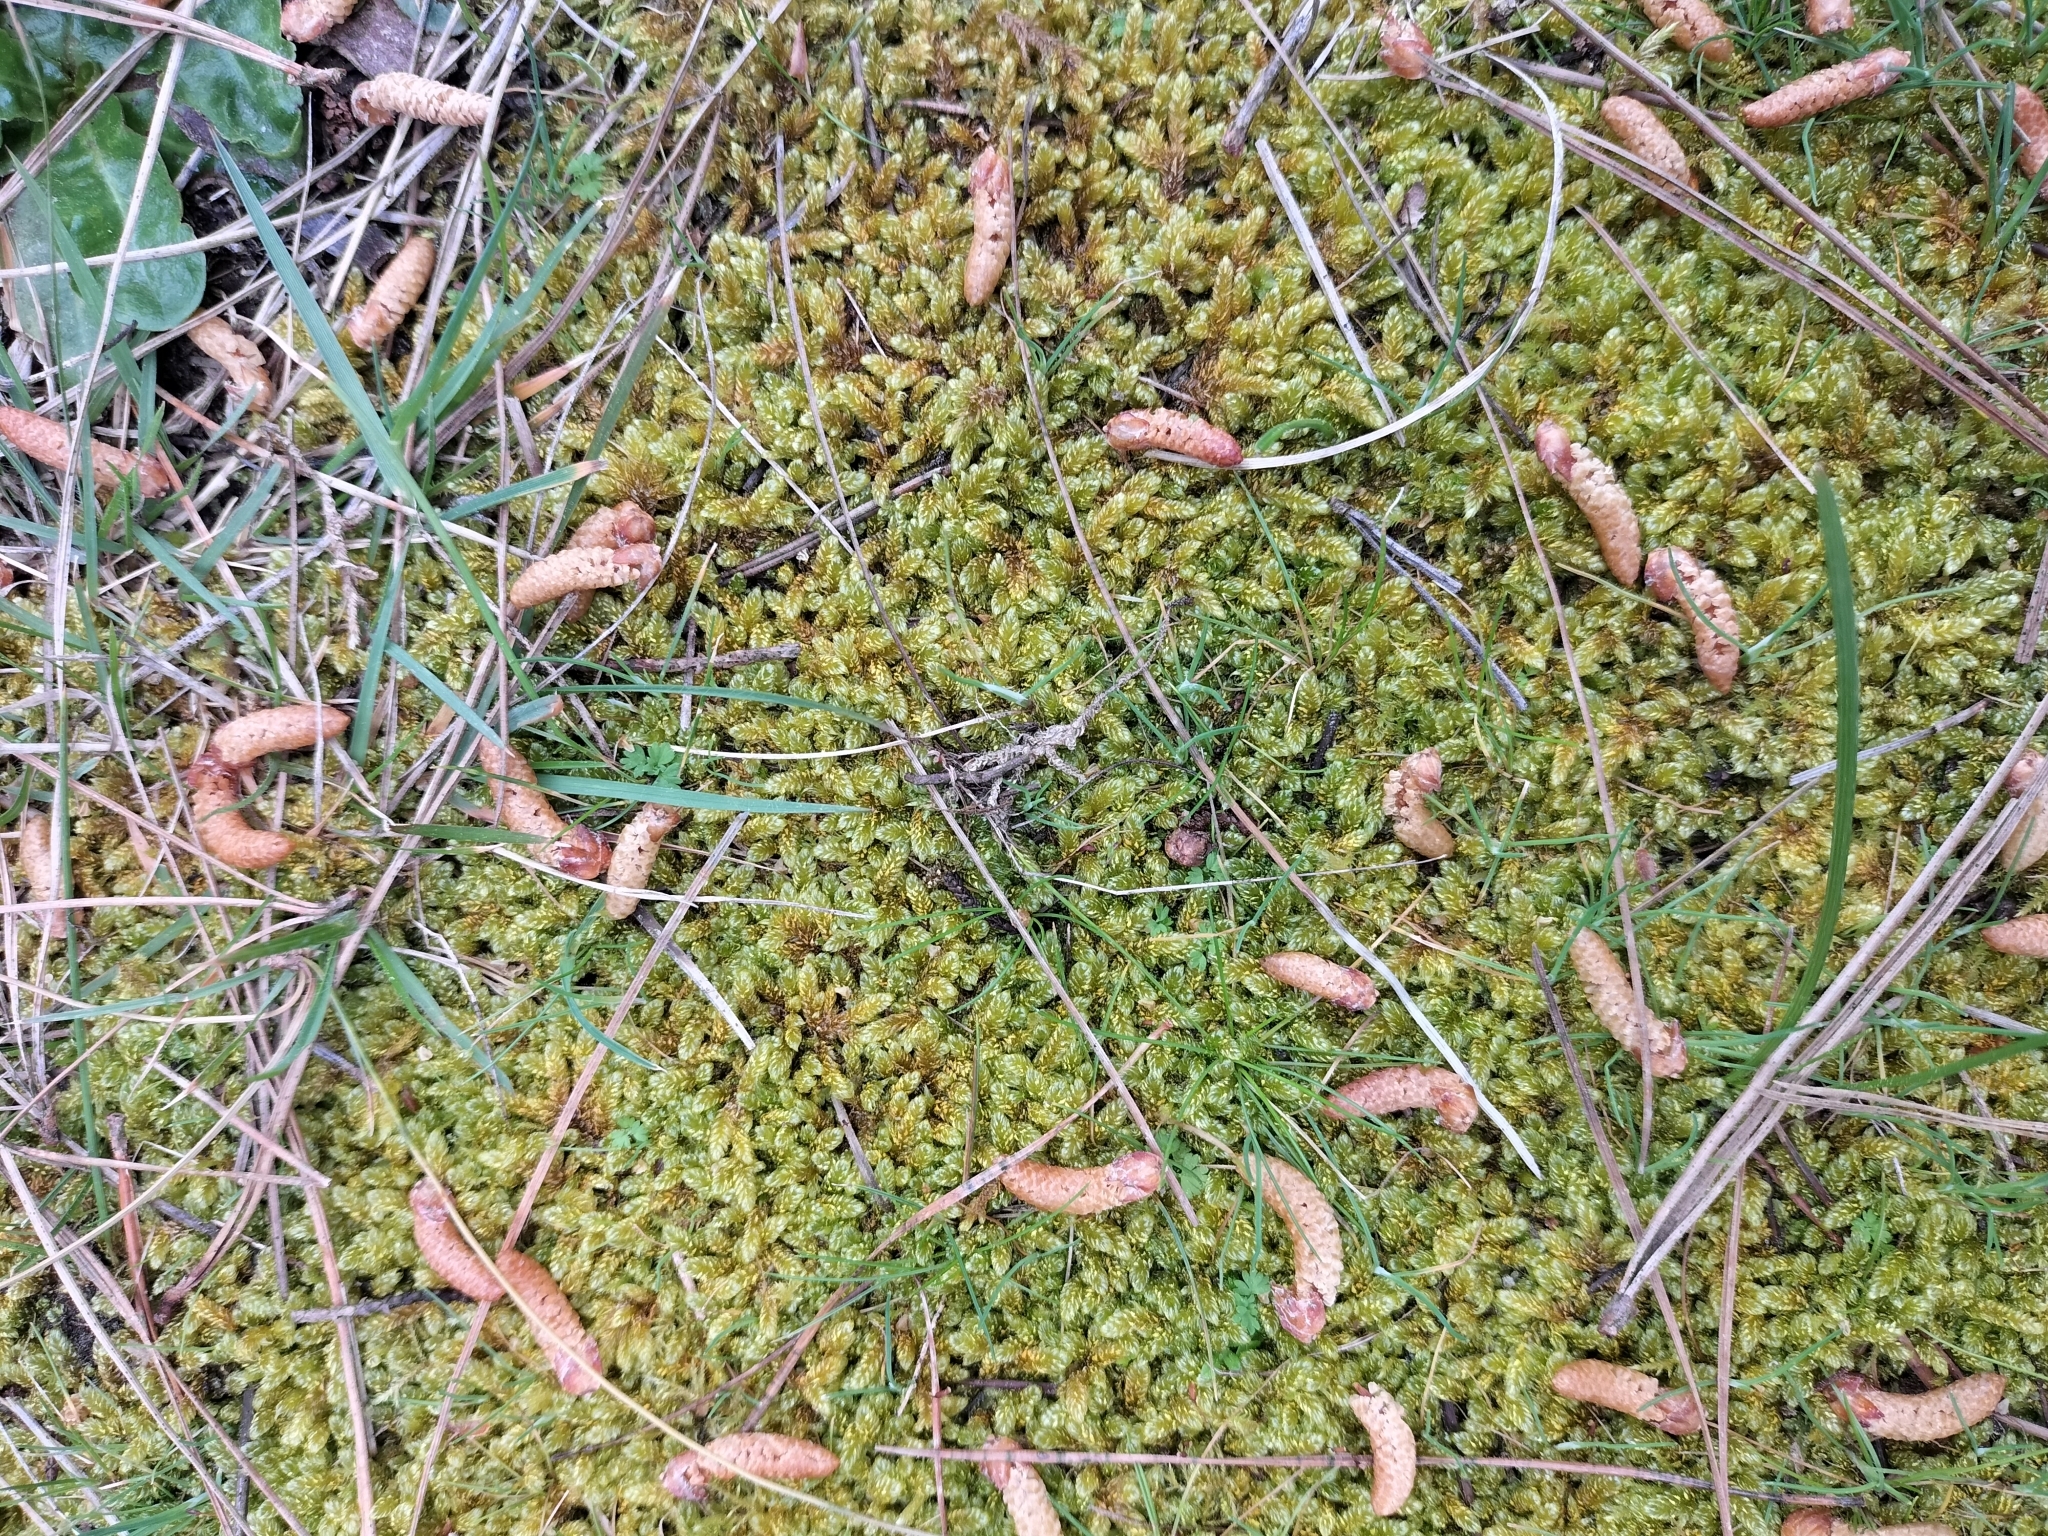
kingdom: Plantae
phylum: Bryophyta
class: Bryopsida
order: Hypnales
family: Hypnaceae
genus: Hypnum
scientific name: Hypnum cupressiforme
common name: Cypress-leaved plait-moss
